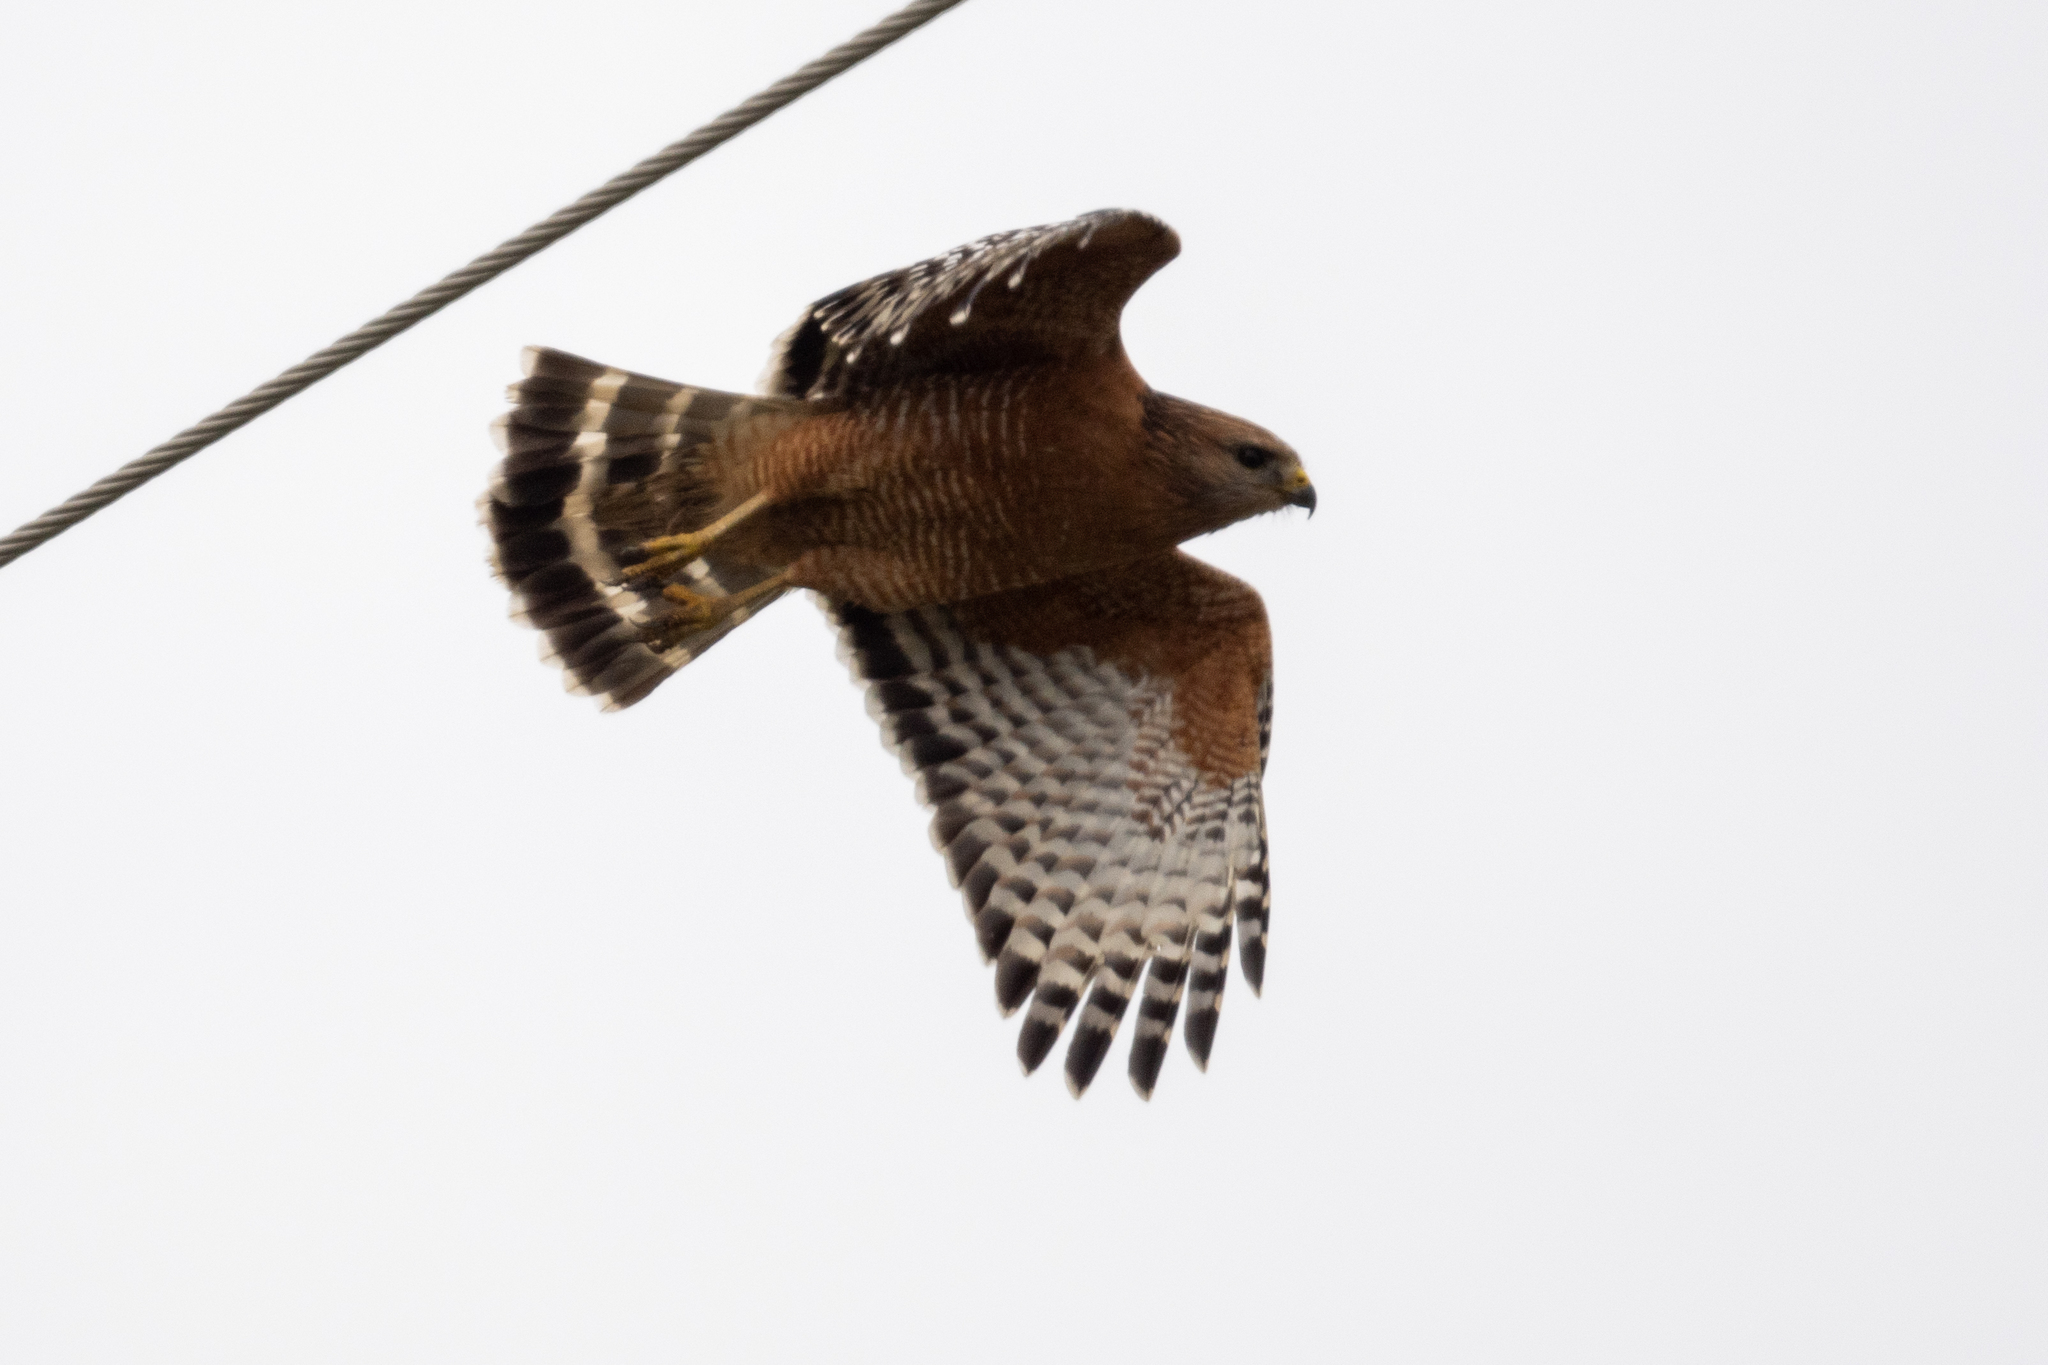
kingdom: Animalia
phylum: Chordata
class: Aves
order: Accipitriformes
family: Accipitridae
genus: Buteo
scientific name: Buteo lineatus
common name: Red-shouldered hawk
